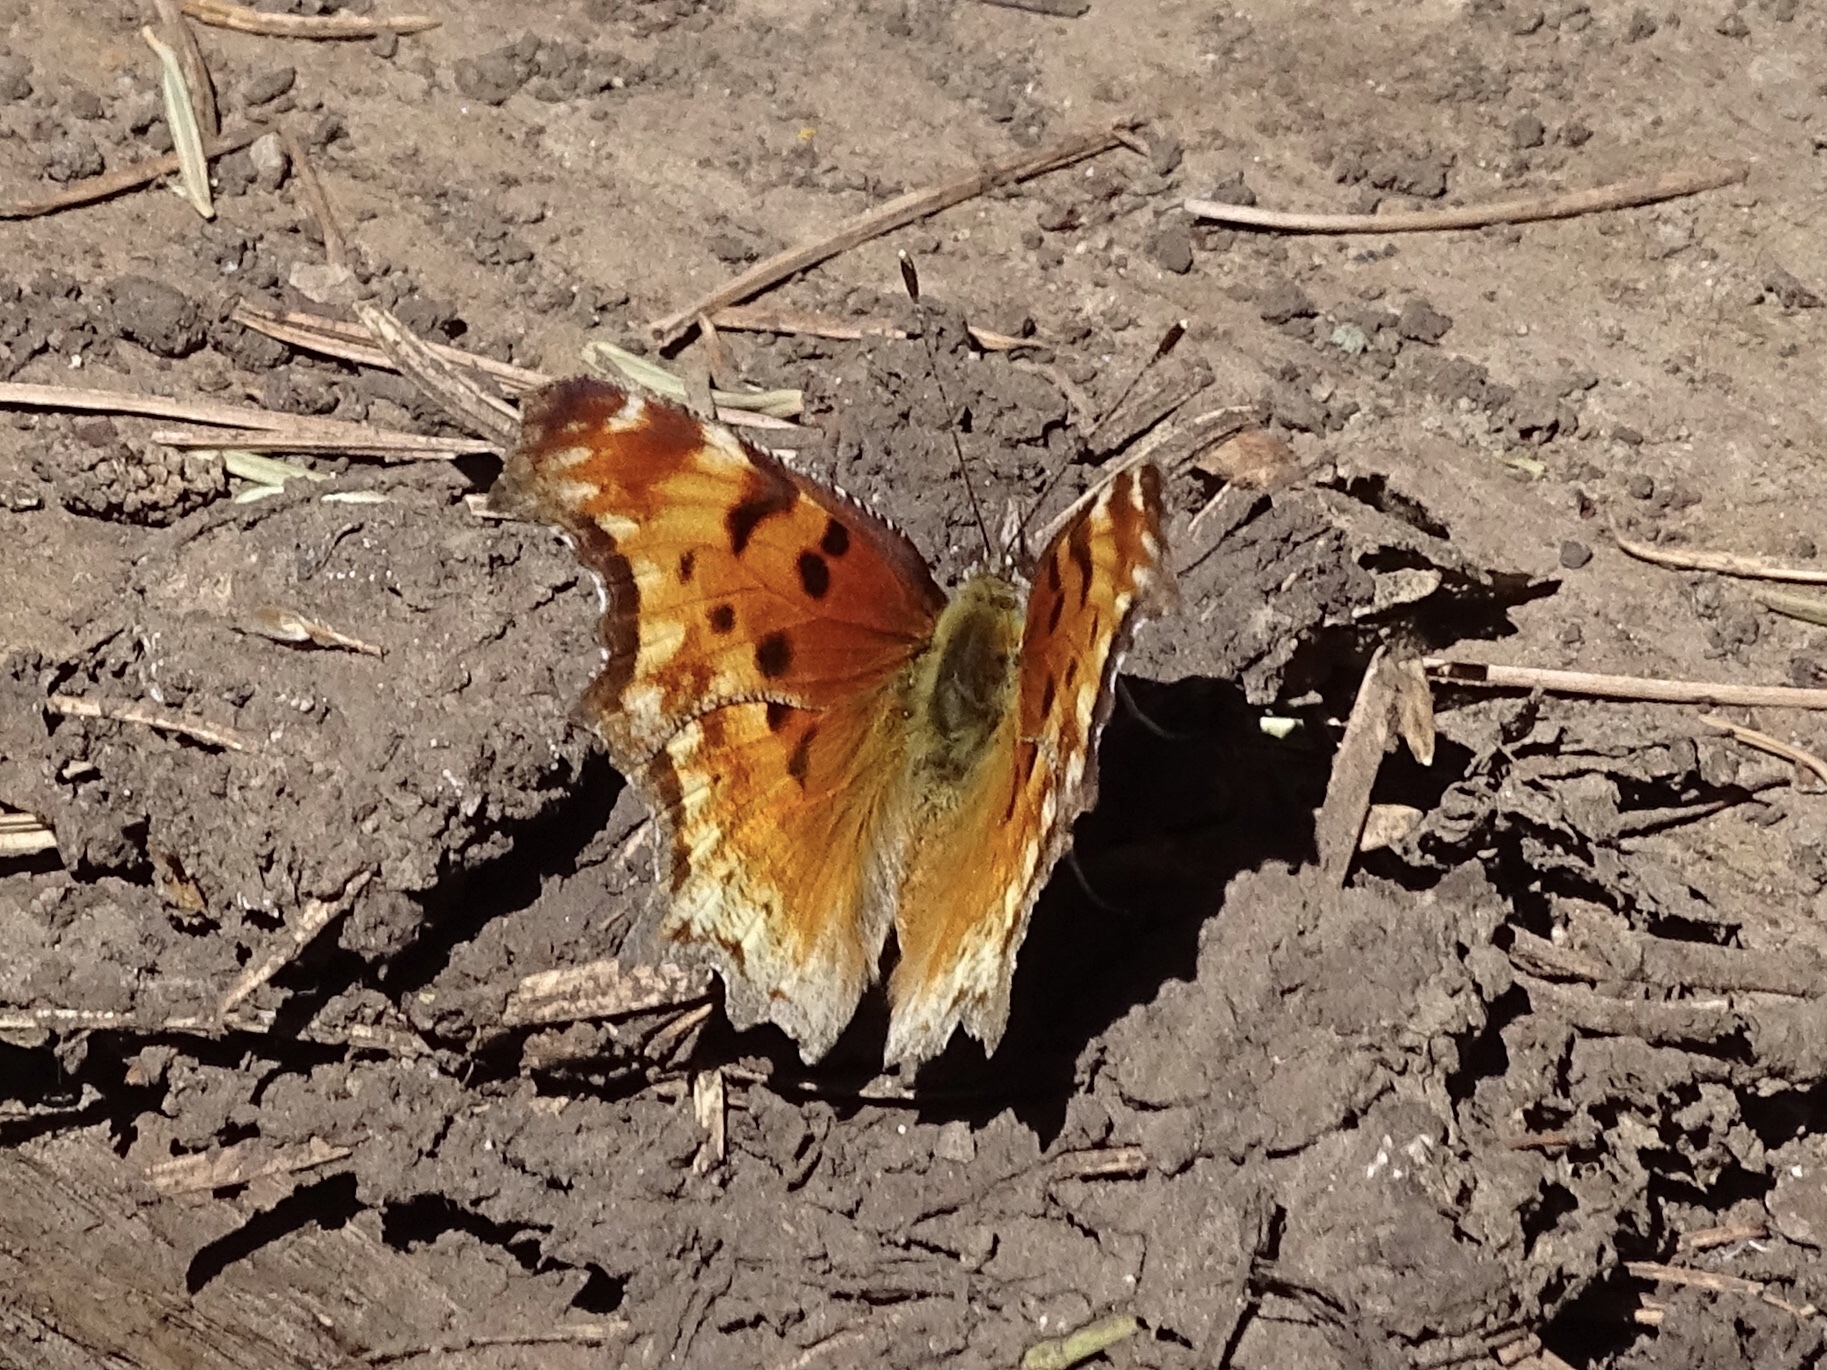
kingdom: Animalia
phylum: Arthropoda
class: Insecta
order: Lepidoptera
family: Nymphalidae
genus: Polygonia
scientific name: Polygonia gracilis
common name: Hoary comma
